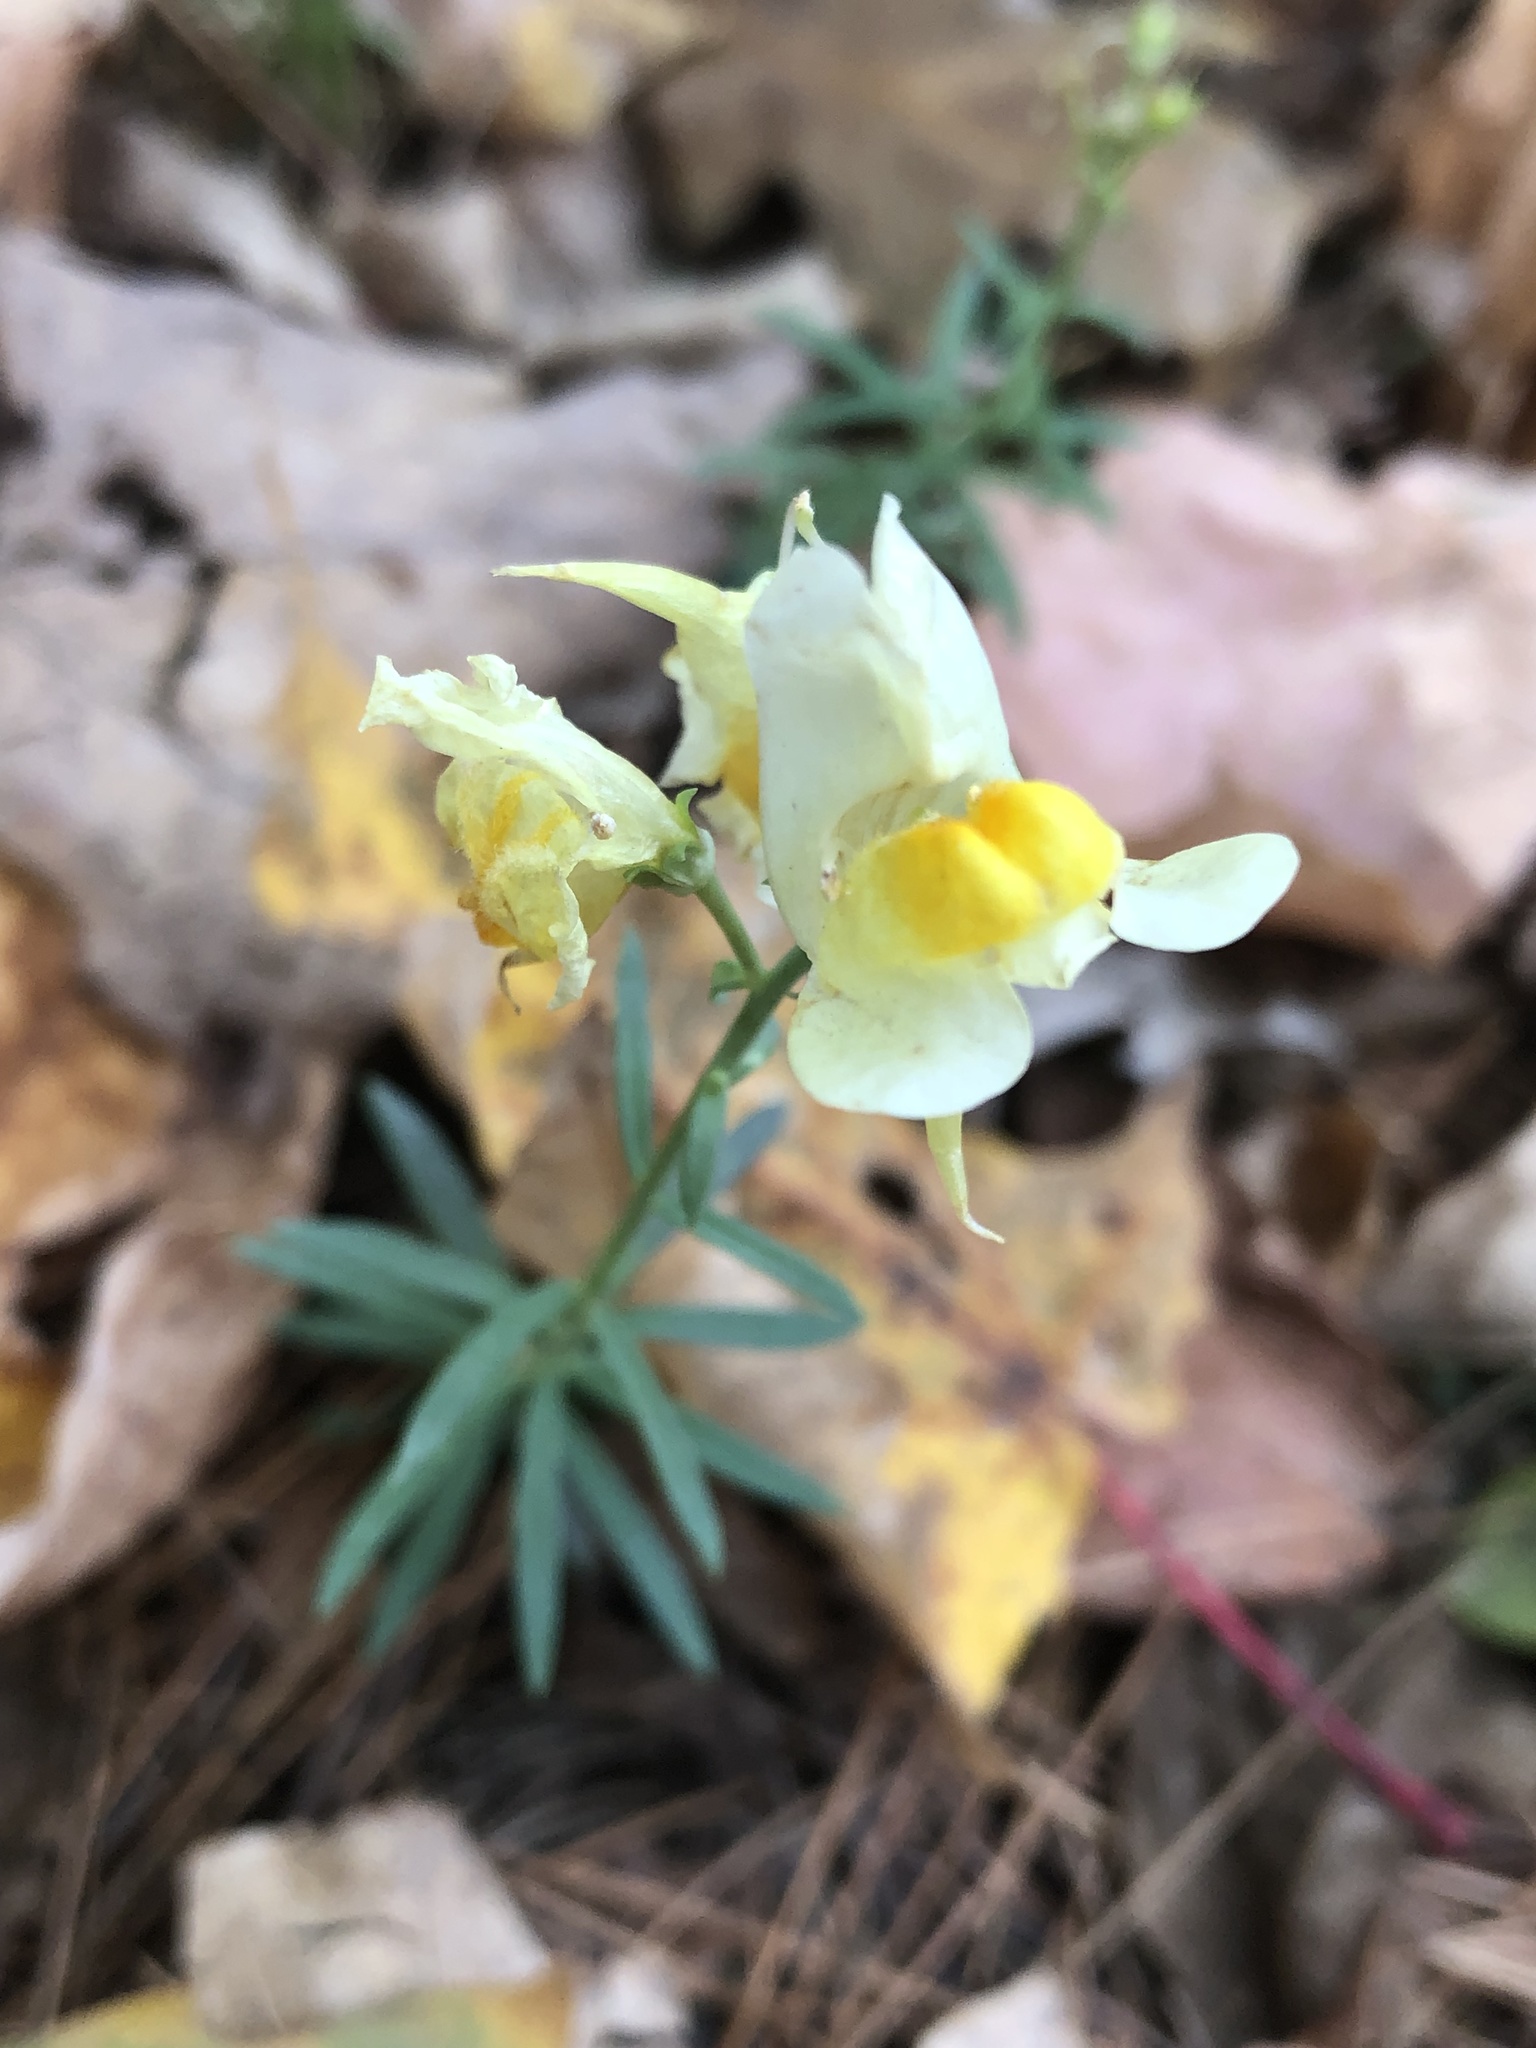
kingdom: Plantae
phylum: Tracheophyta
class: Magnoliopsida
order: Lamiales
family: Plantaginaceae
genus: Linaria
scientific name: Linaria vulgaris
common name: Butter and eggs
